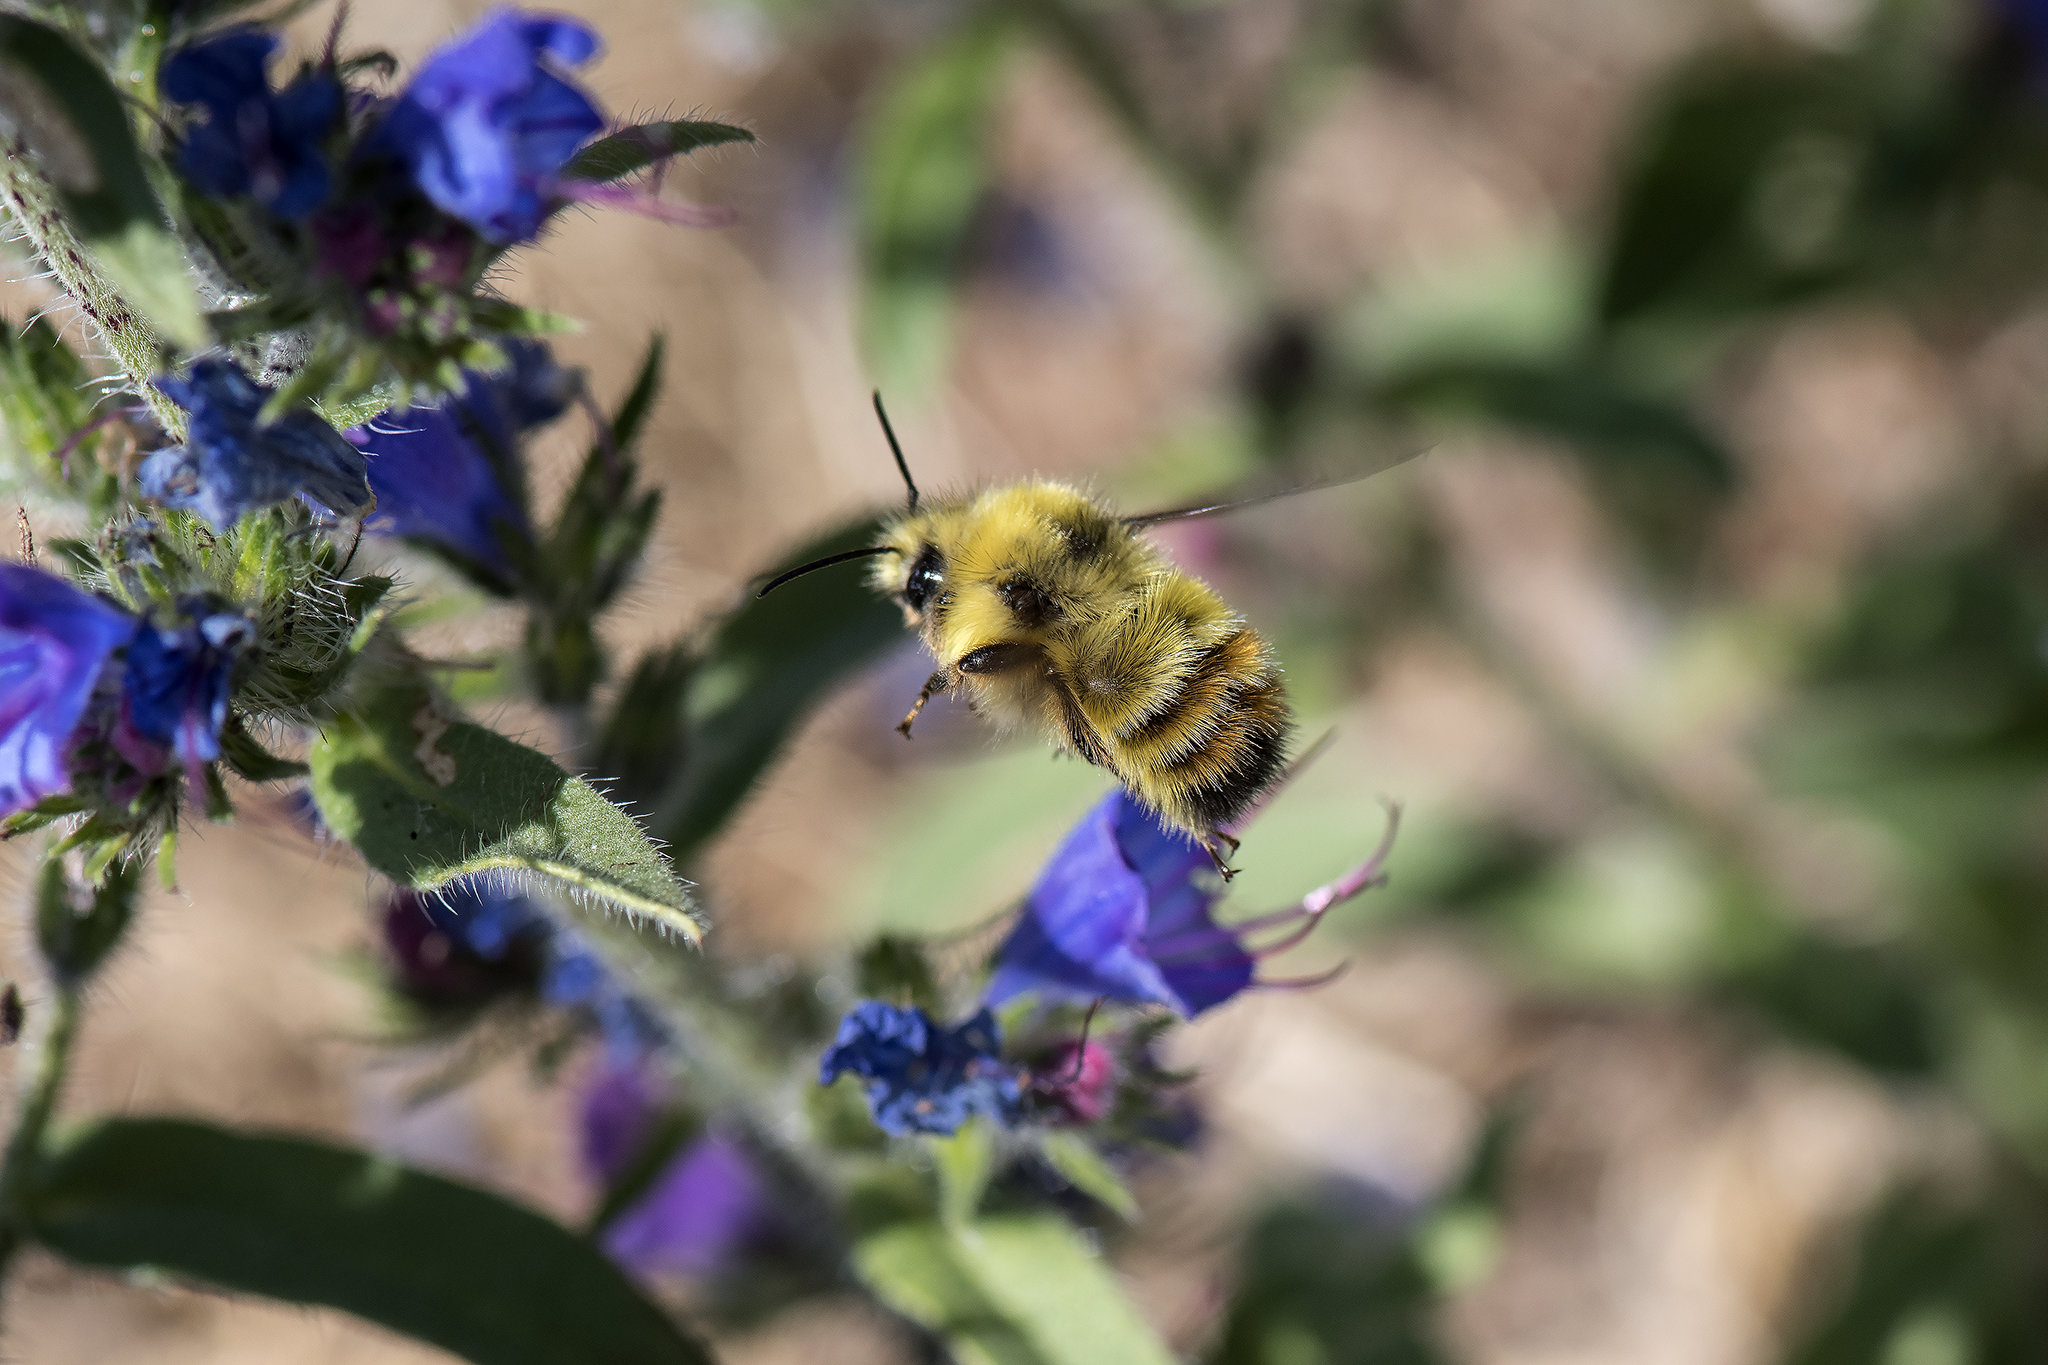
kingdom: Animalia
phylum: Arthropoda
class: Insecta
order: Hymenoptera
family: Apidae
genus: Bombus
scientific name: Bombus flavifrons
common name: Yellow head bumble bee
